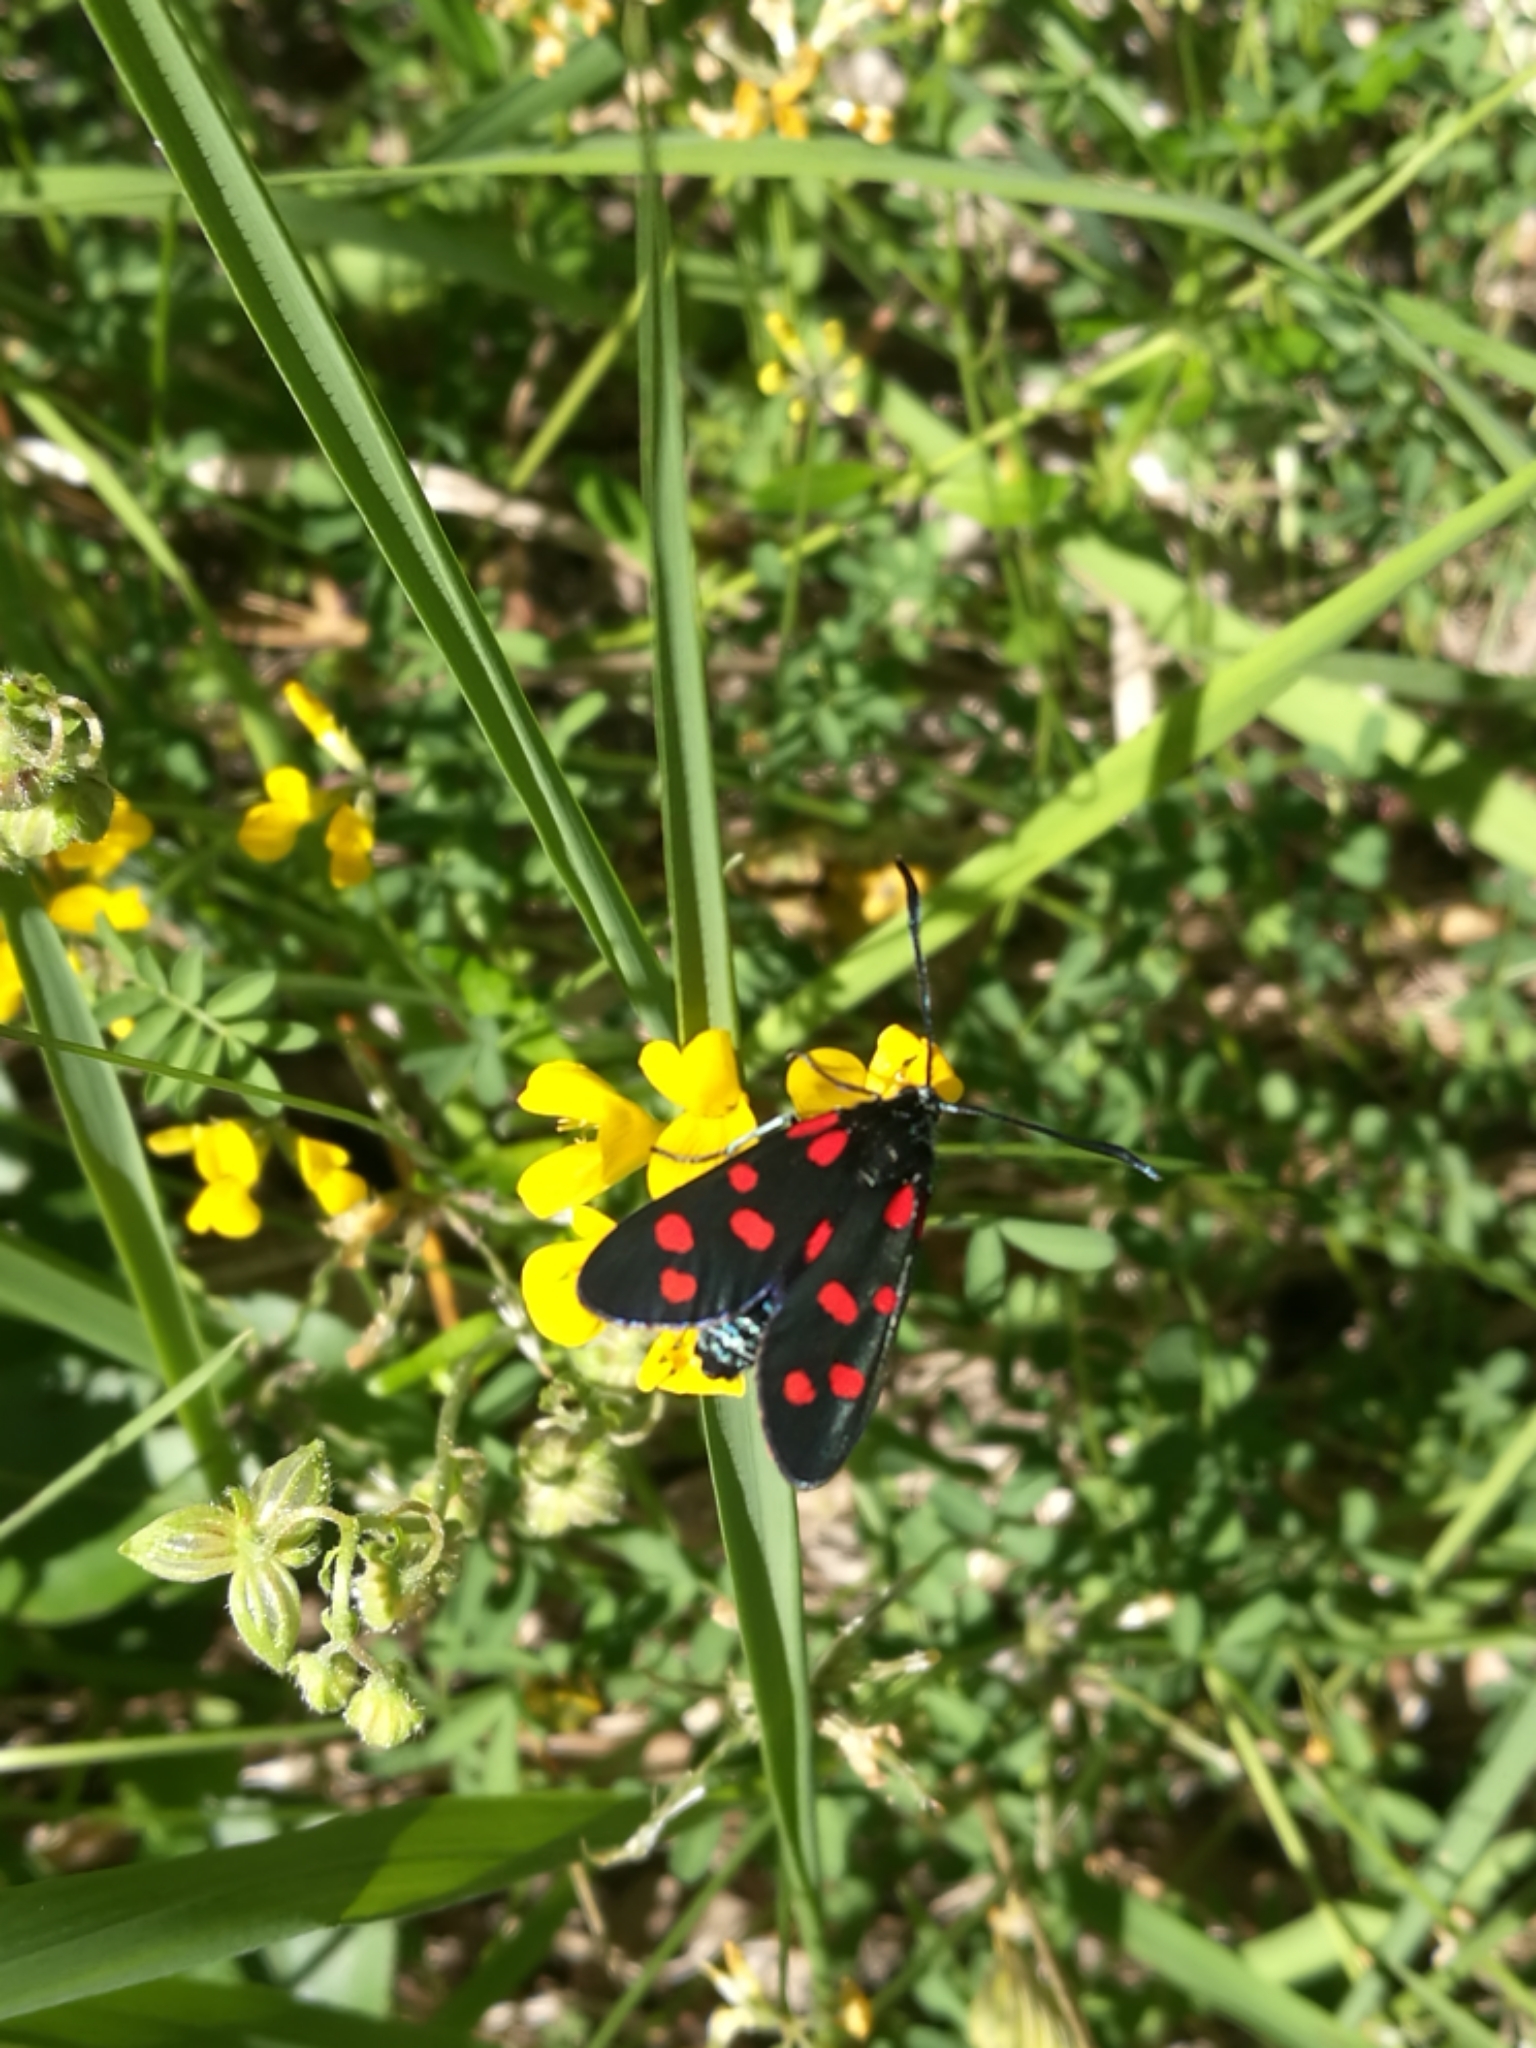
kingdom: Animalia
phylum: Arthropoda
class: Insecta
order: Lepidoptera
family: Zygaenidae
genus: Zygaena
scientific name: Zygaena transalpina
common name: Southern six spot burnet
